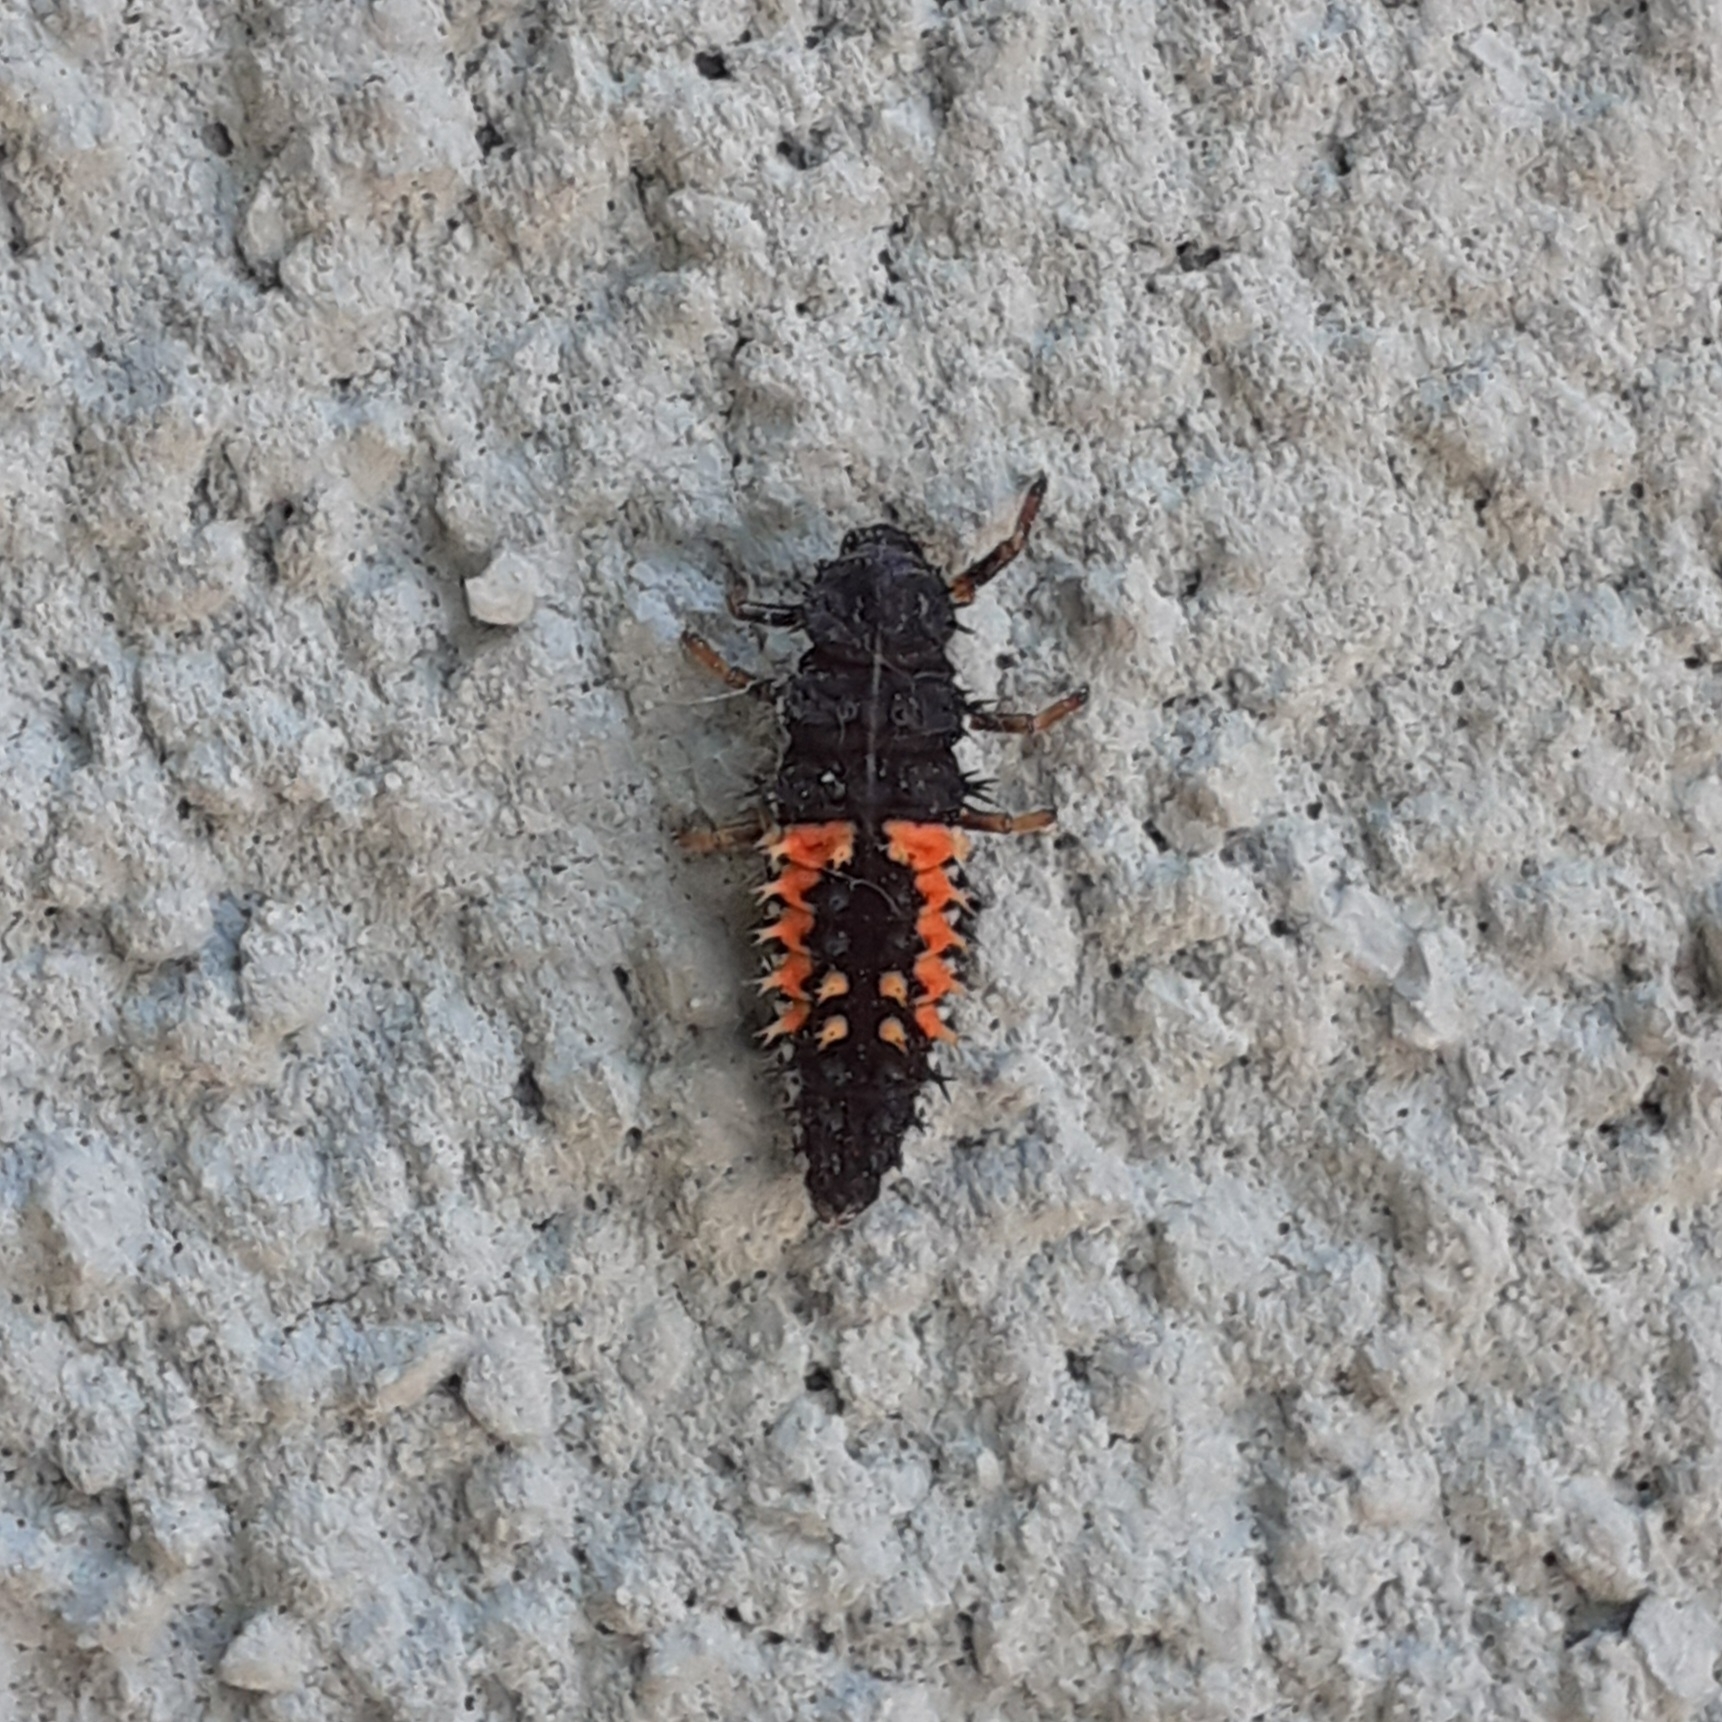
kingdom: Animalia
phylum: Arthropoda
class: Insecta
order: Coleoptera
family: Coccinellidae
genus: Harmonia
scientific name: Harmonia axyridis
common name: Harlequin ladybird
